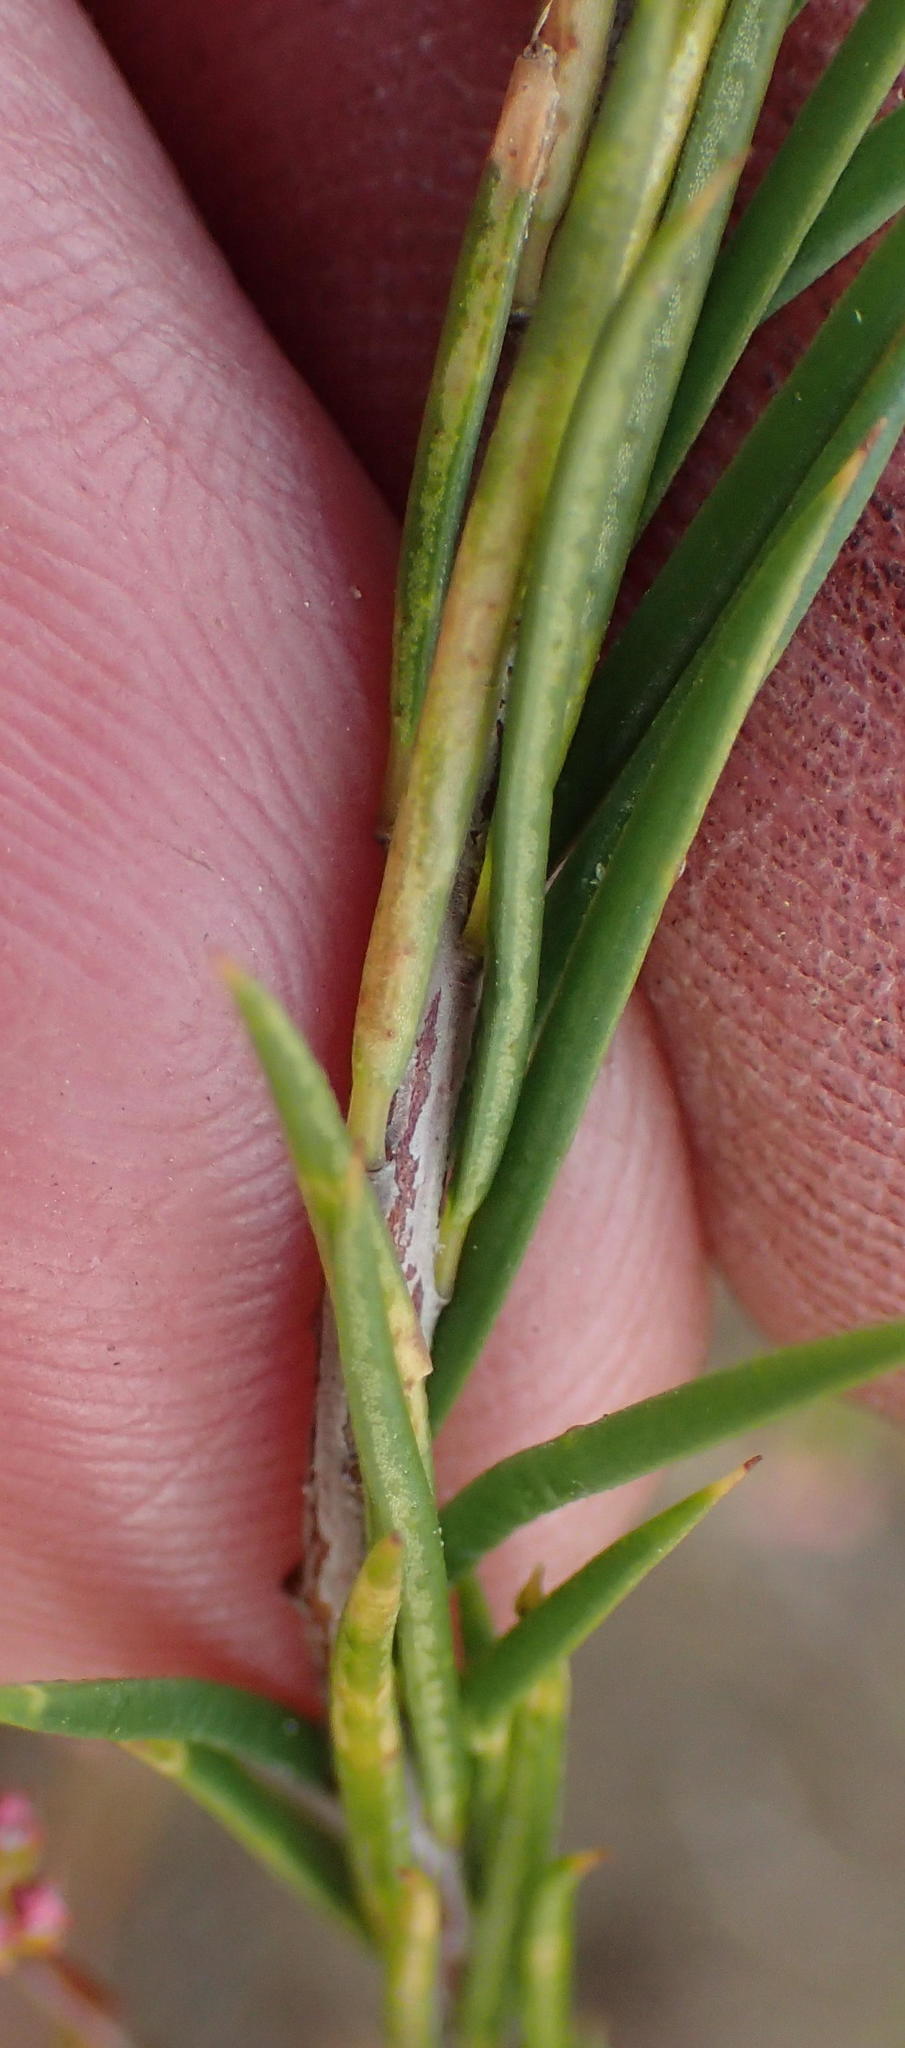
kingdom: Plantae
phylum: Tracheophyta
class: Magnoliopsida
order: Sapindales
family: Rutaceae
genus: Diosma
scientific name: Diosma hirsuta
